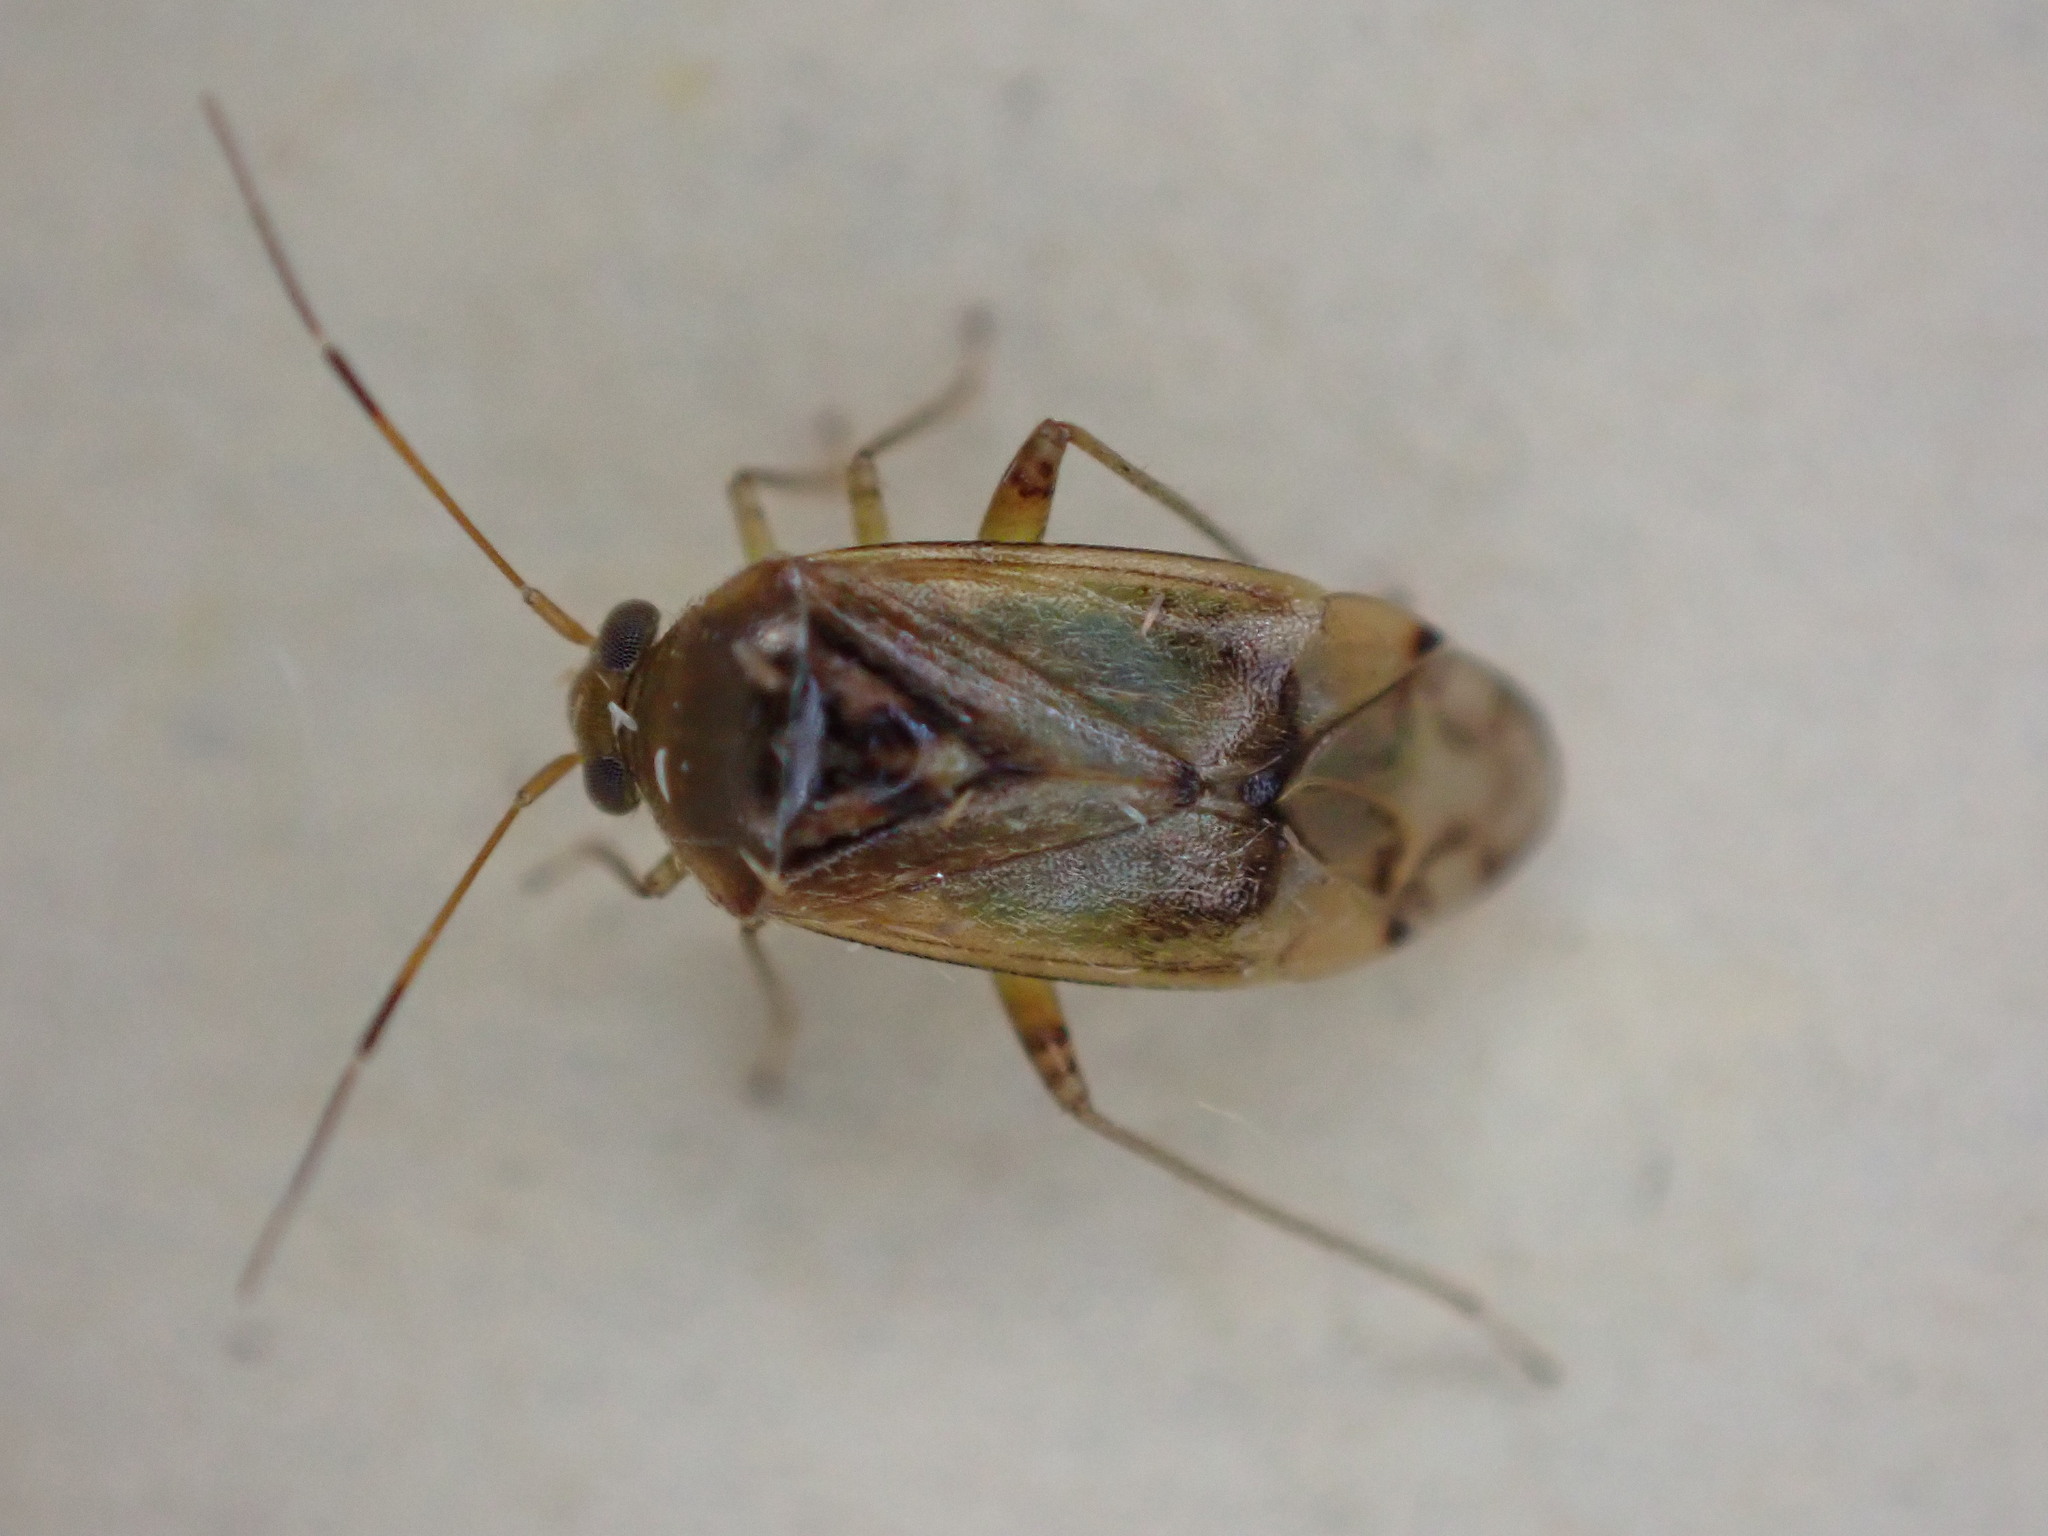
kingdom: Animalia
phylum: Arthropoda
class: Insecta
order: Hemiptera
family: Miridae
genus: Pinalitus
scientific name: Pinalitus cervinus
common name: Plant bug
